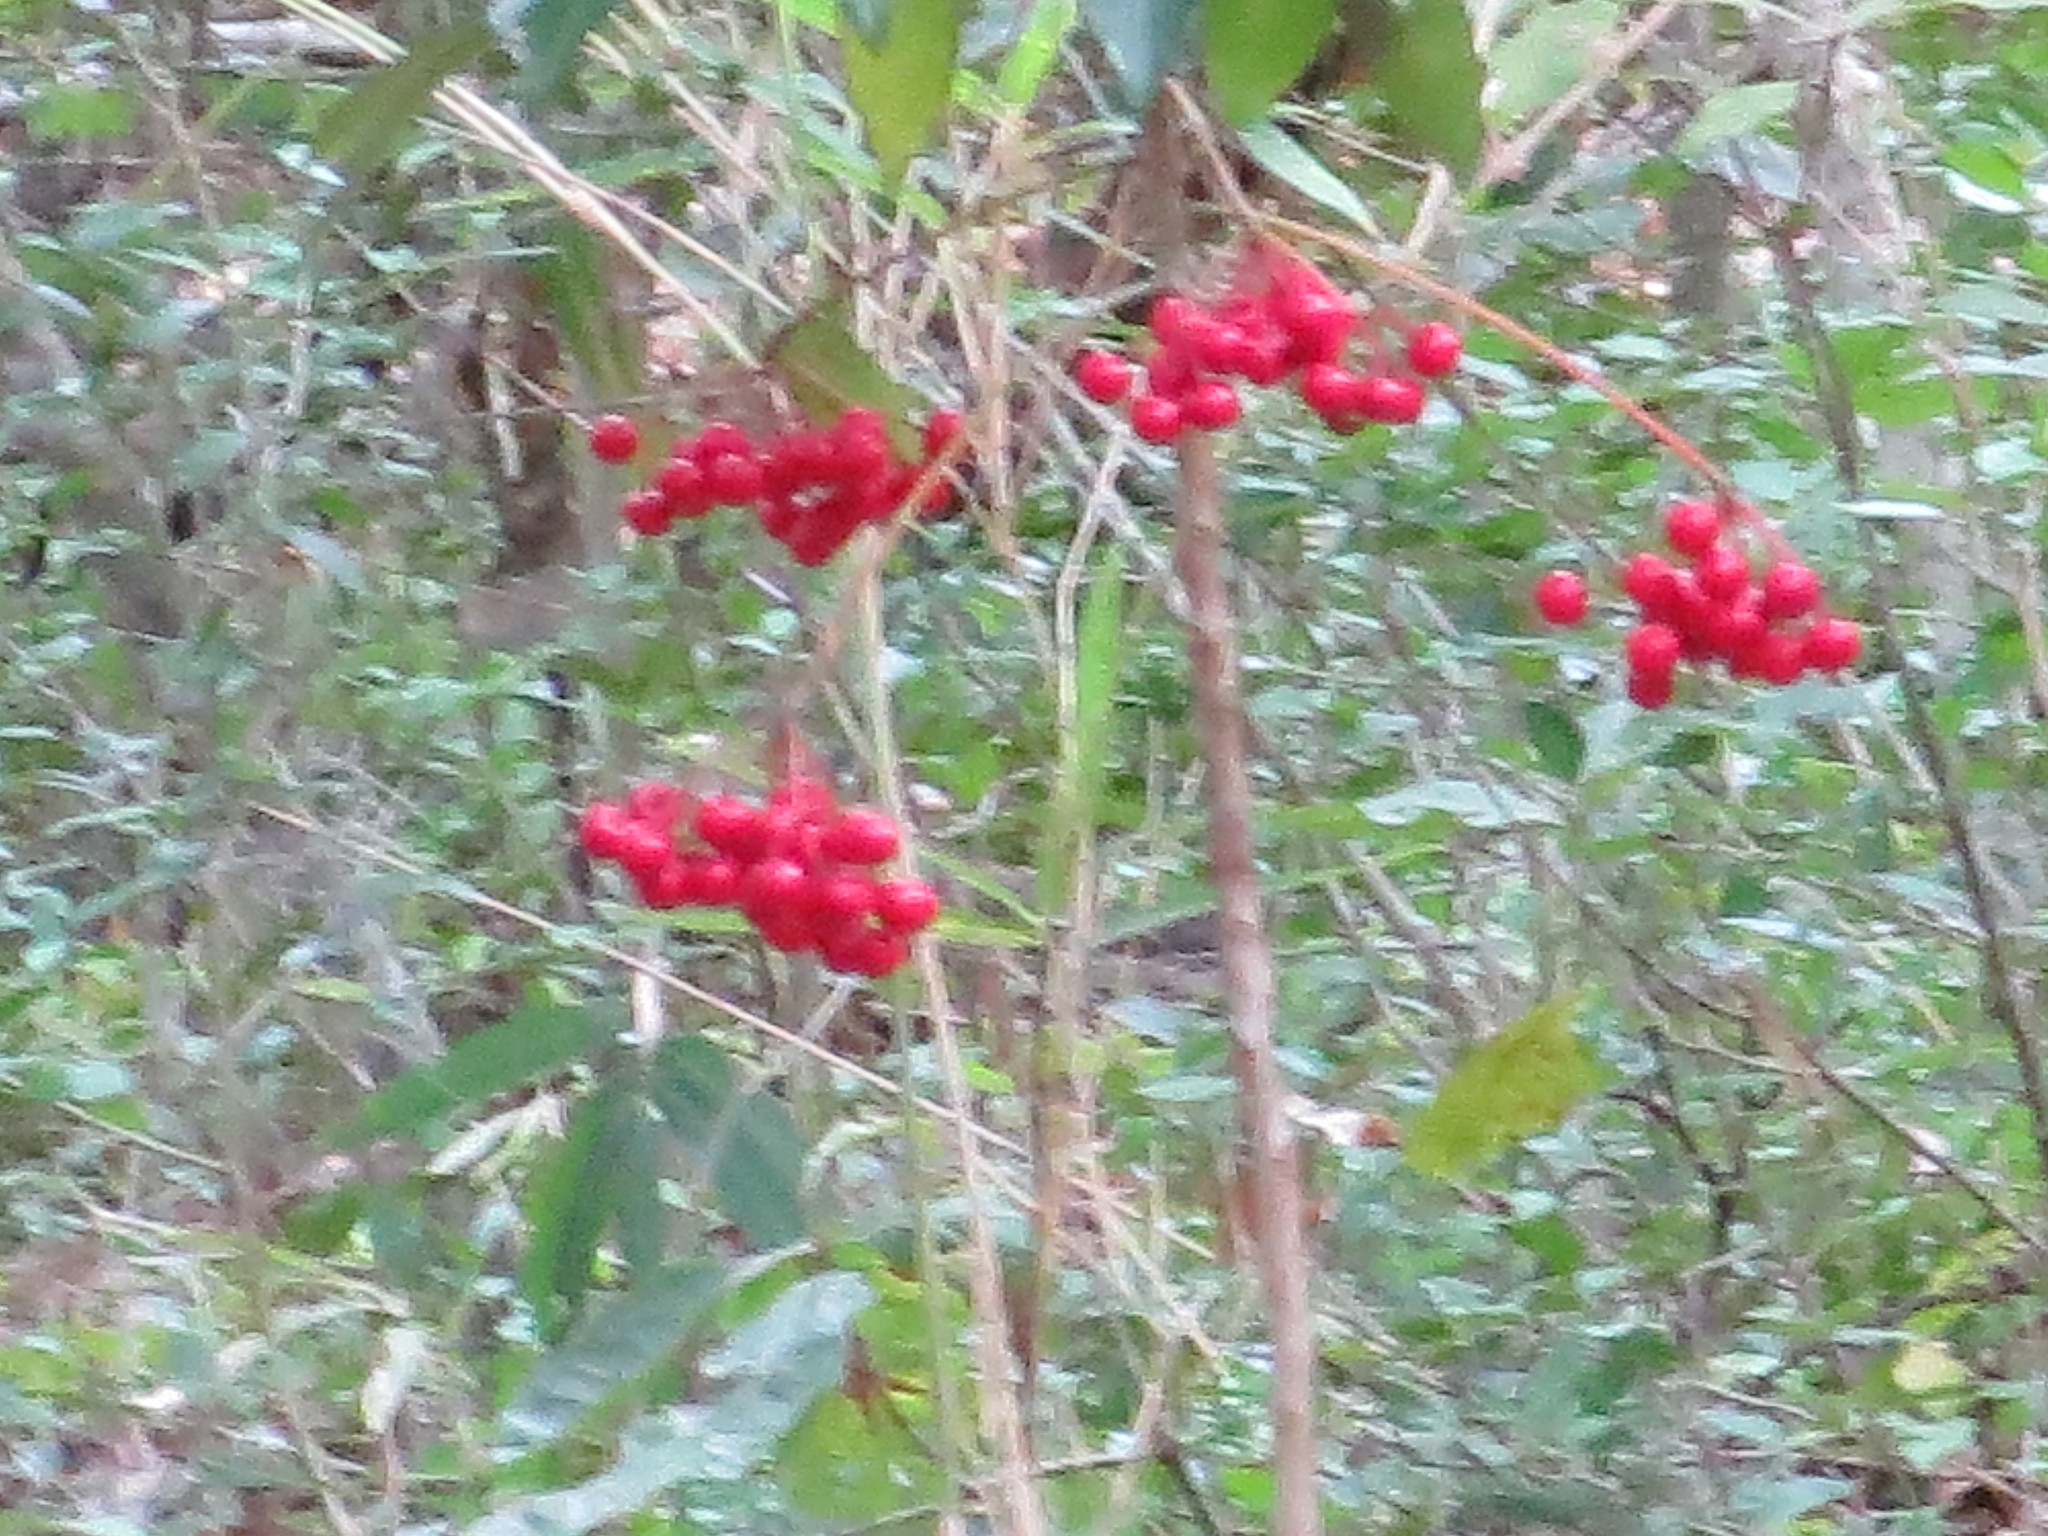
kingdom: Plantae
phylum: Tracheophyta
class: Magnoliopsida
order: Ericales
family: Primulaceae
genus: Ardisia
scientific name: Ardisia crenata
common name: Hen's eyes
